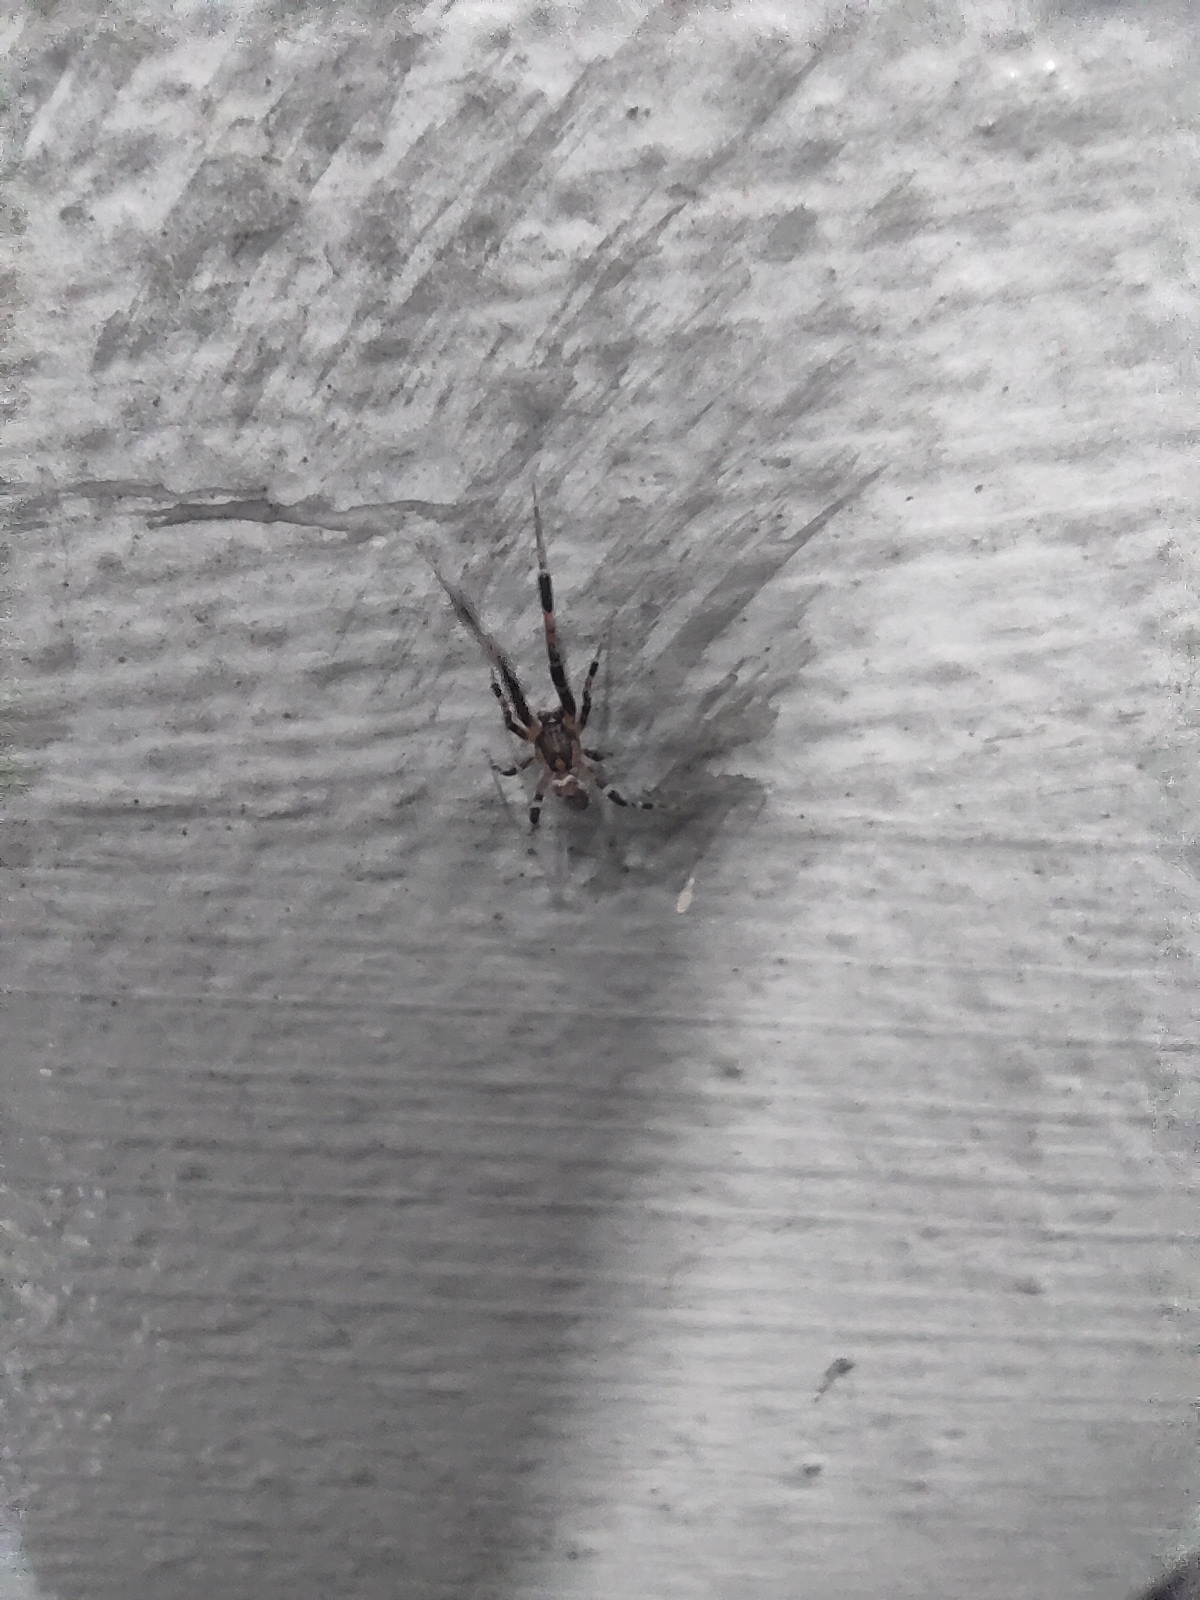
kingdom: Animalia
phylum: Arthropoda
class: Arachnida
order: Araneae
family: Uloboridae
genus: Zosis
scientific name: Zosis geniculata
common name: Hackled orb weavers
